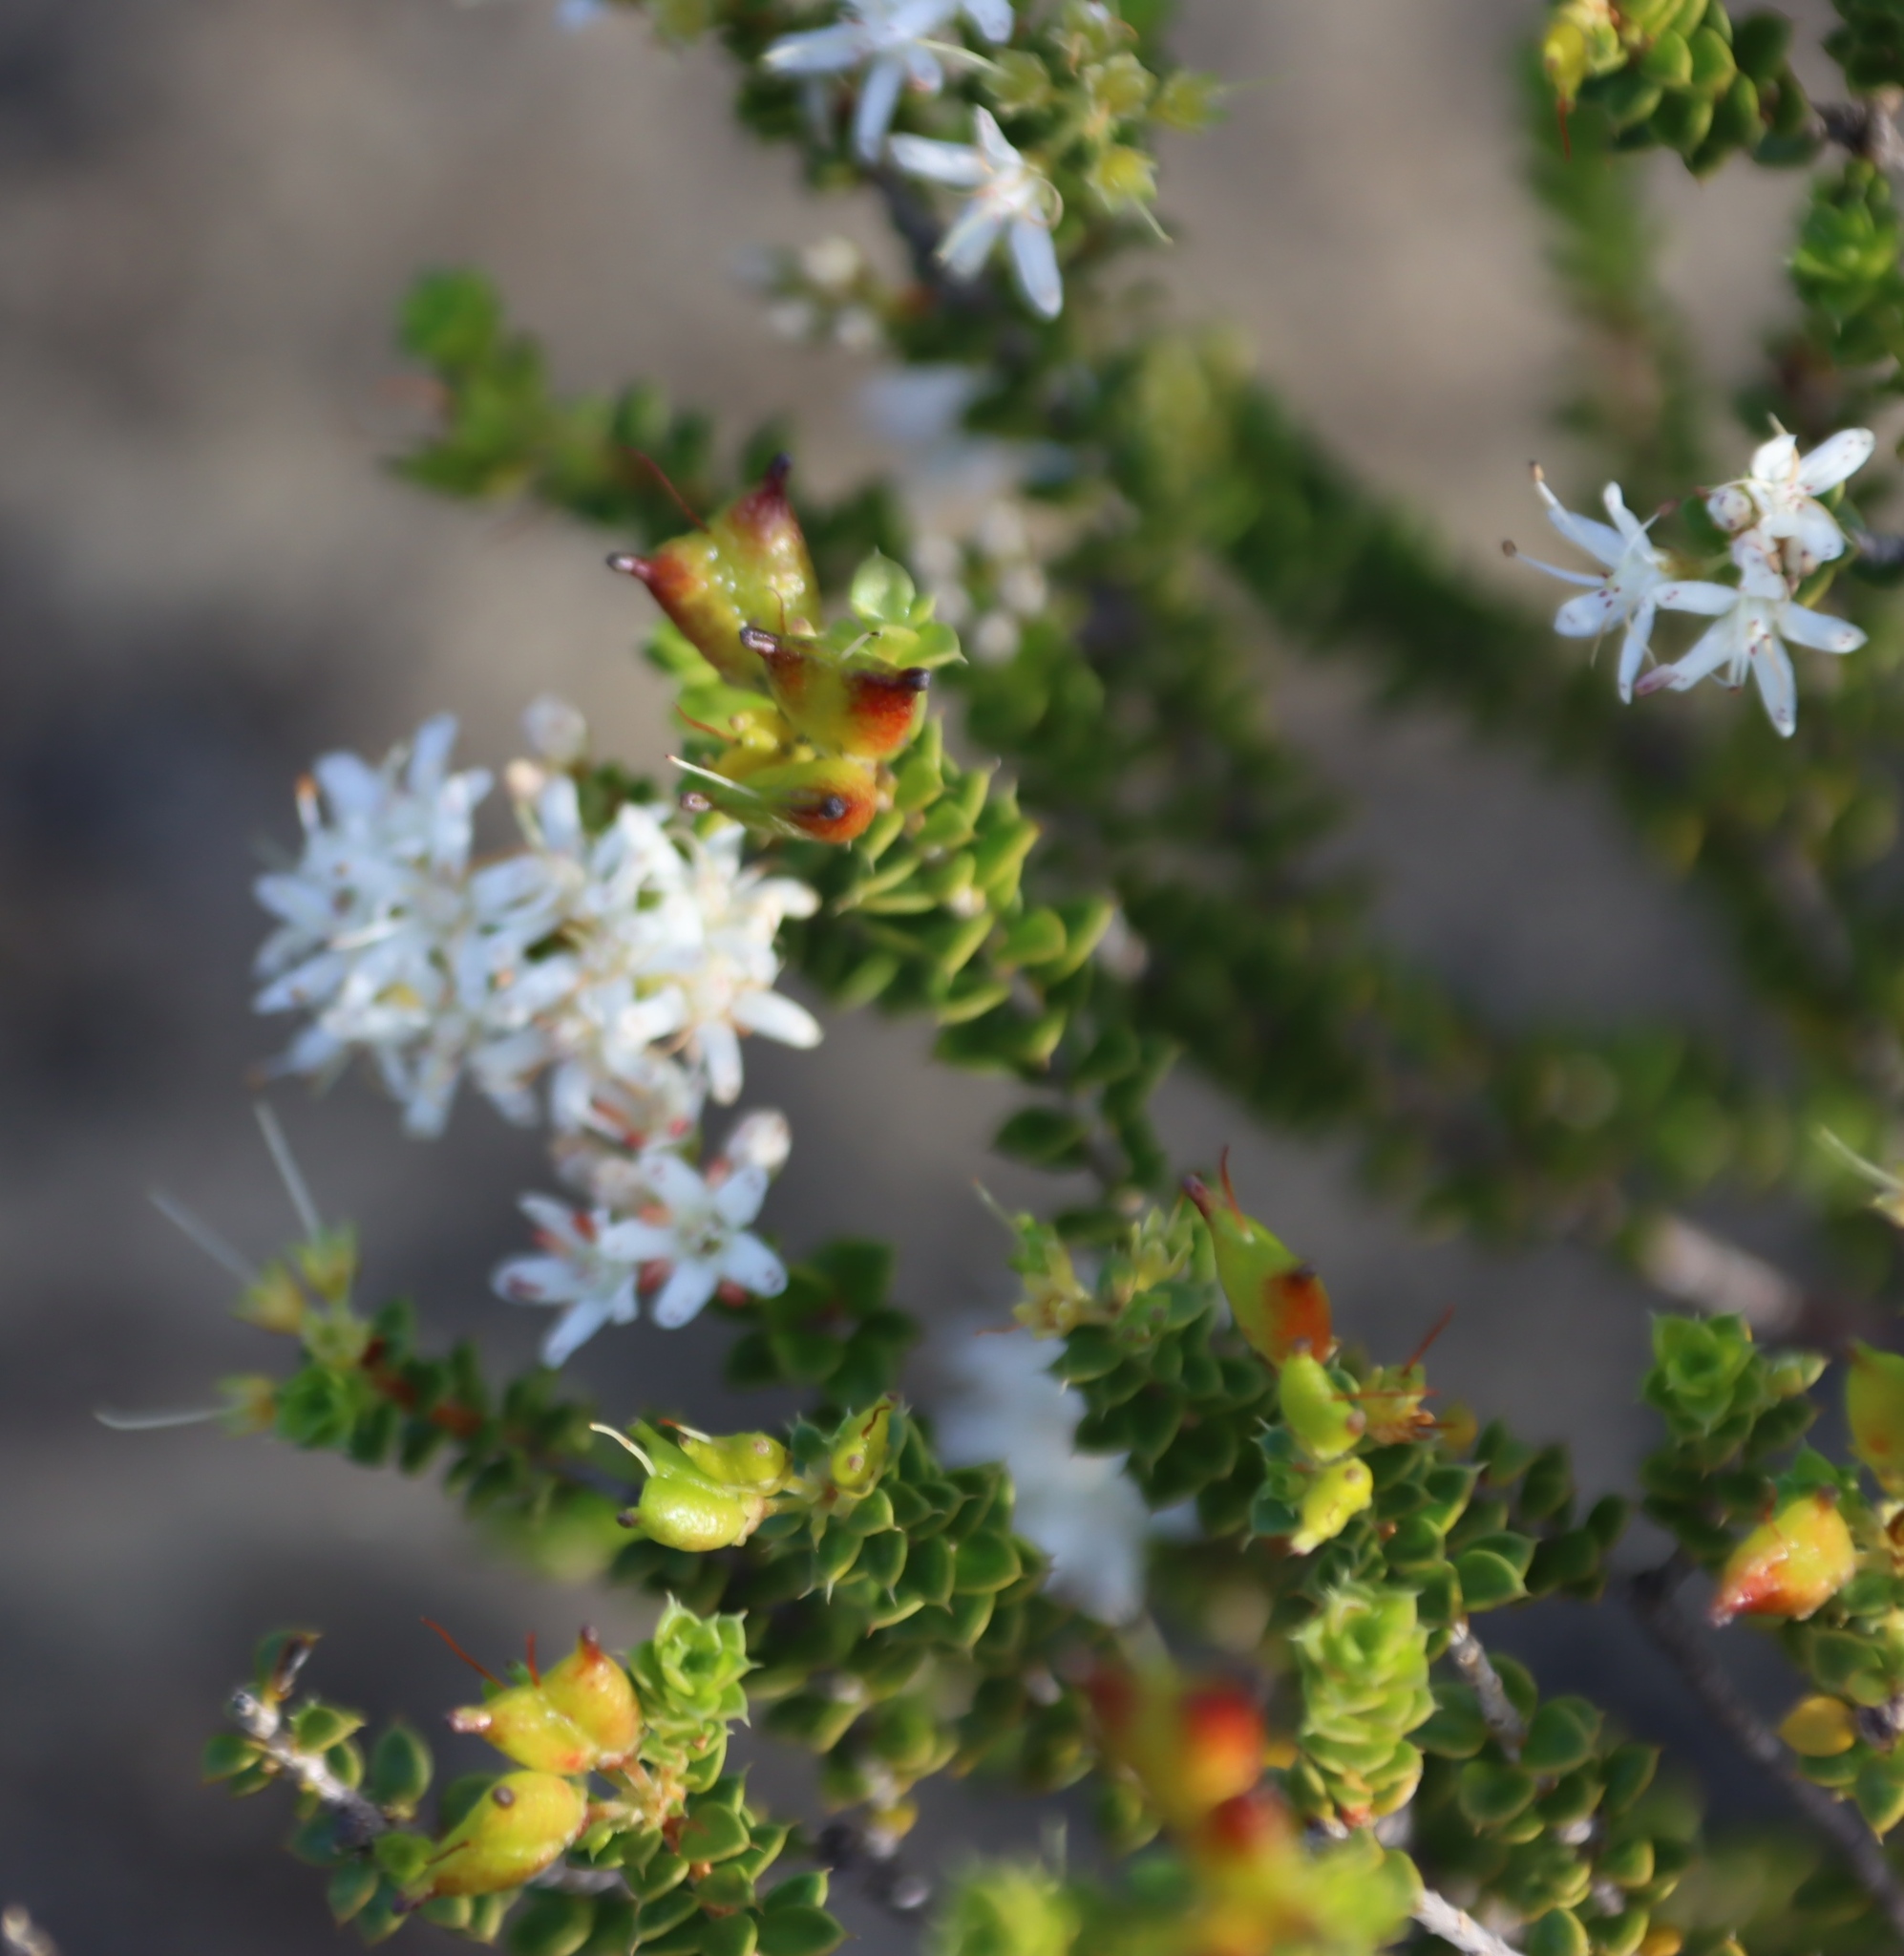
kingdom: Plantae
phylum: Tracheophyta
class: Magnoliopsida
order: Sapindales
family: Rutaceae
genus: Agathosma
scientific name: Agathosma recurvifolia
